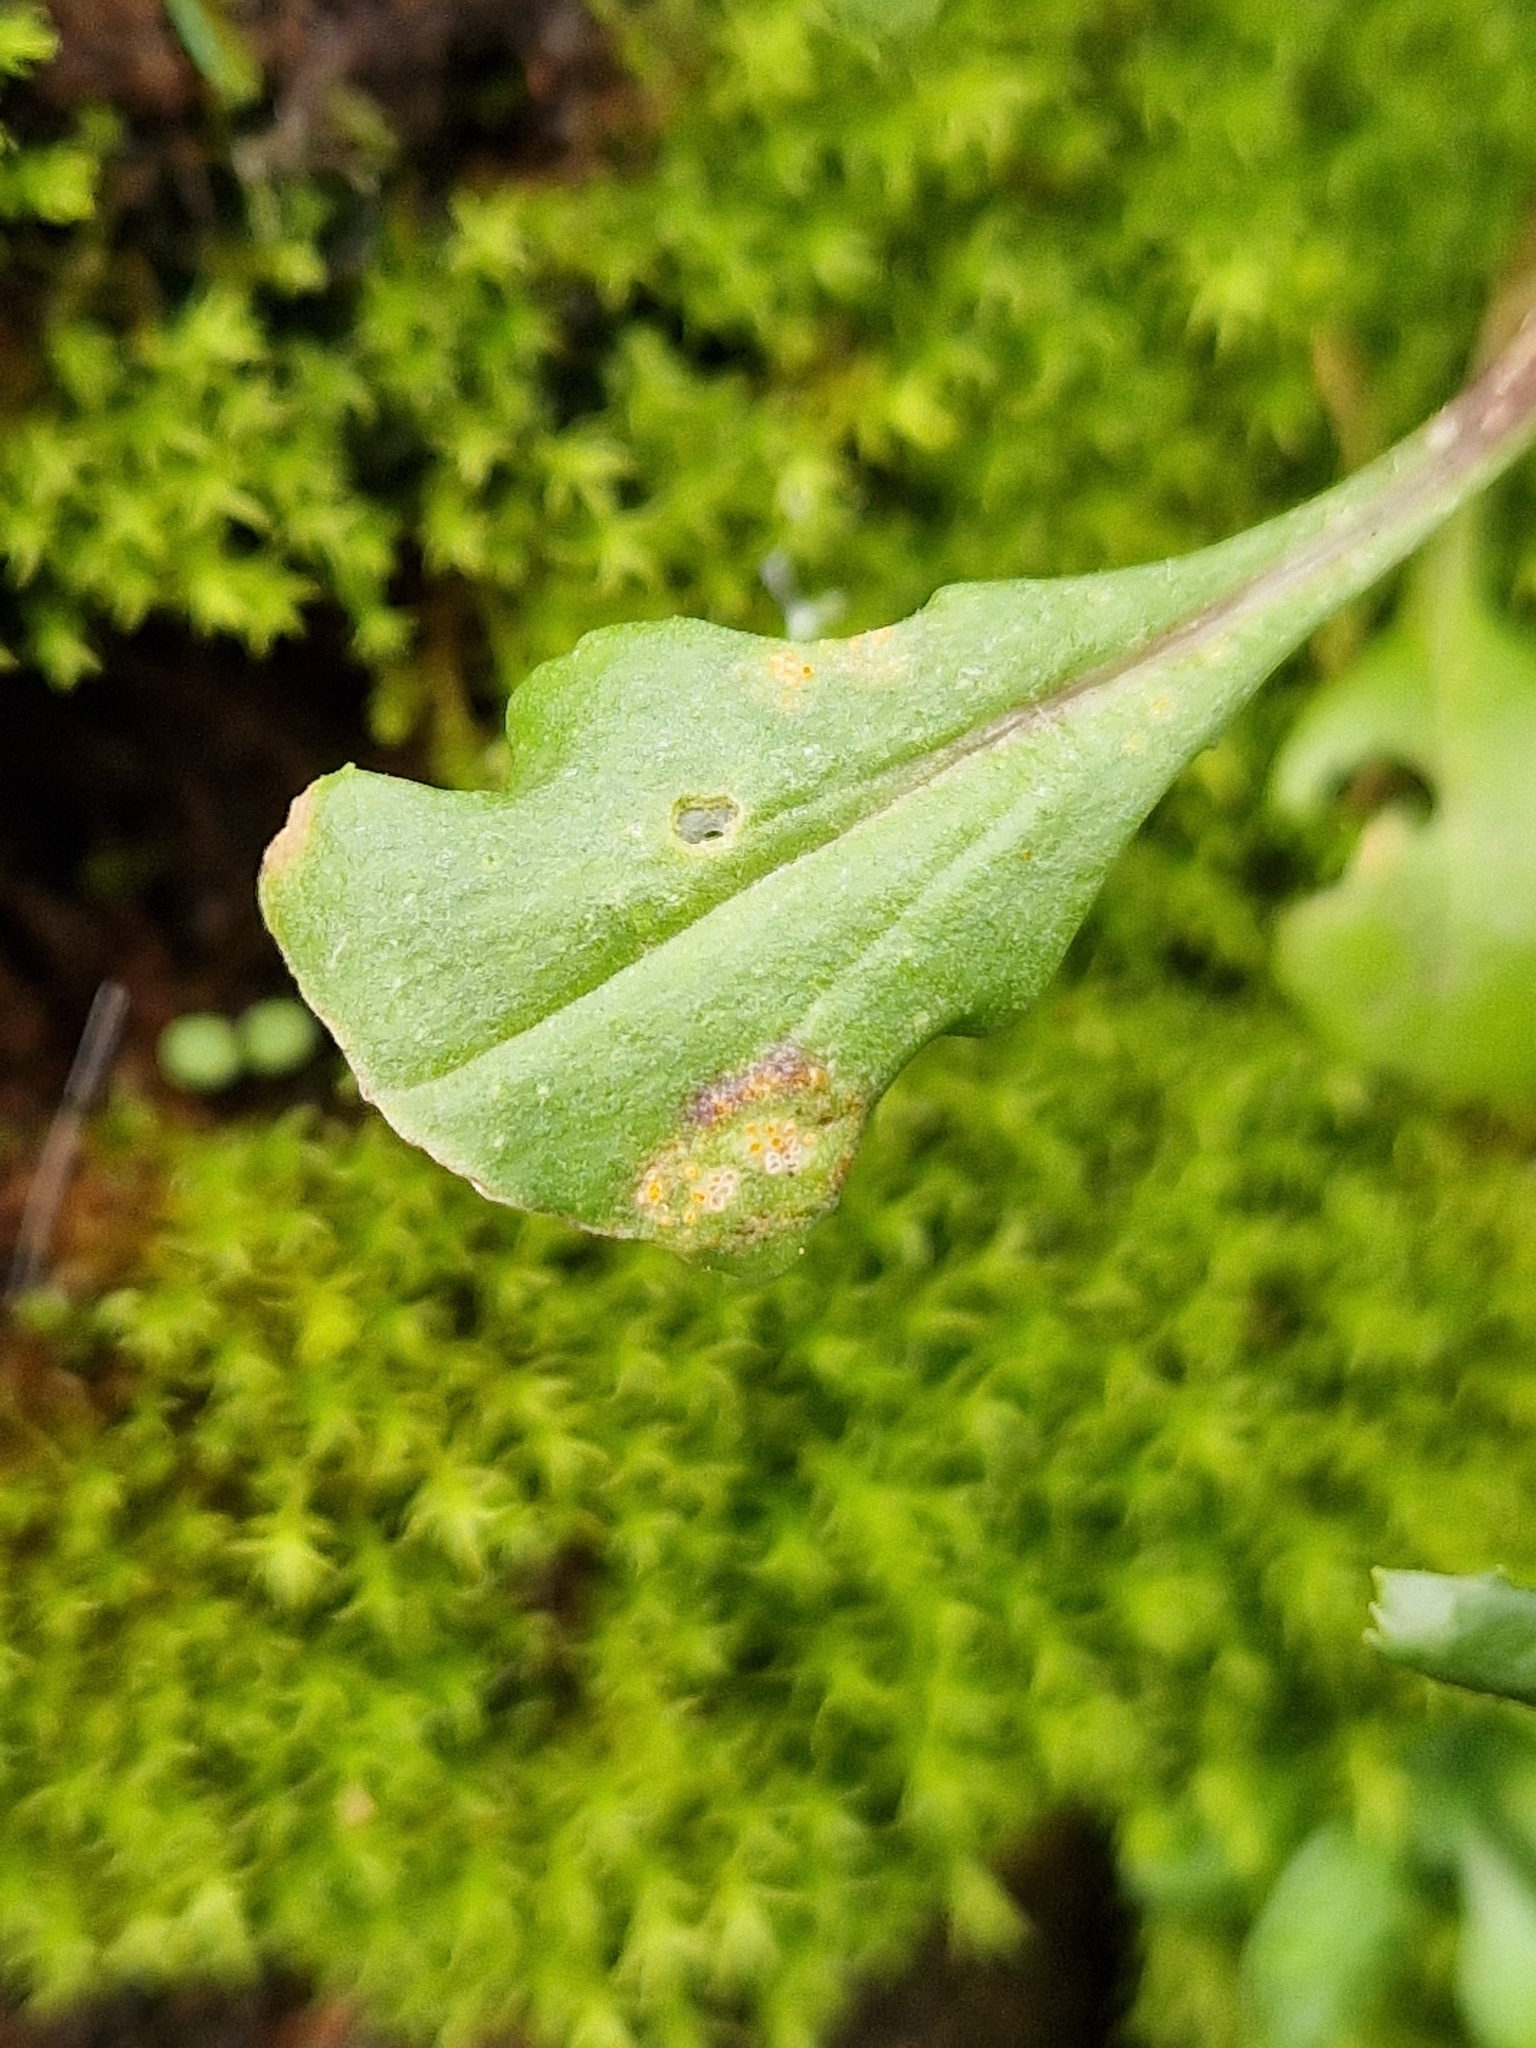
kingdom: Fungi
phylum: Basidiomycota
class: Pucciniomycetes
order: Pucciniales
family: Pucciniaceae
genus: Puccinia
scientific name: Puccinia lagenophorae
